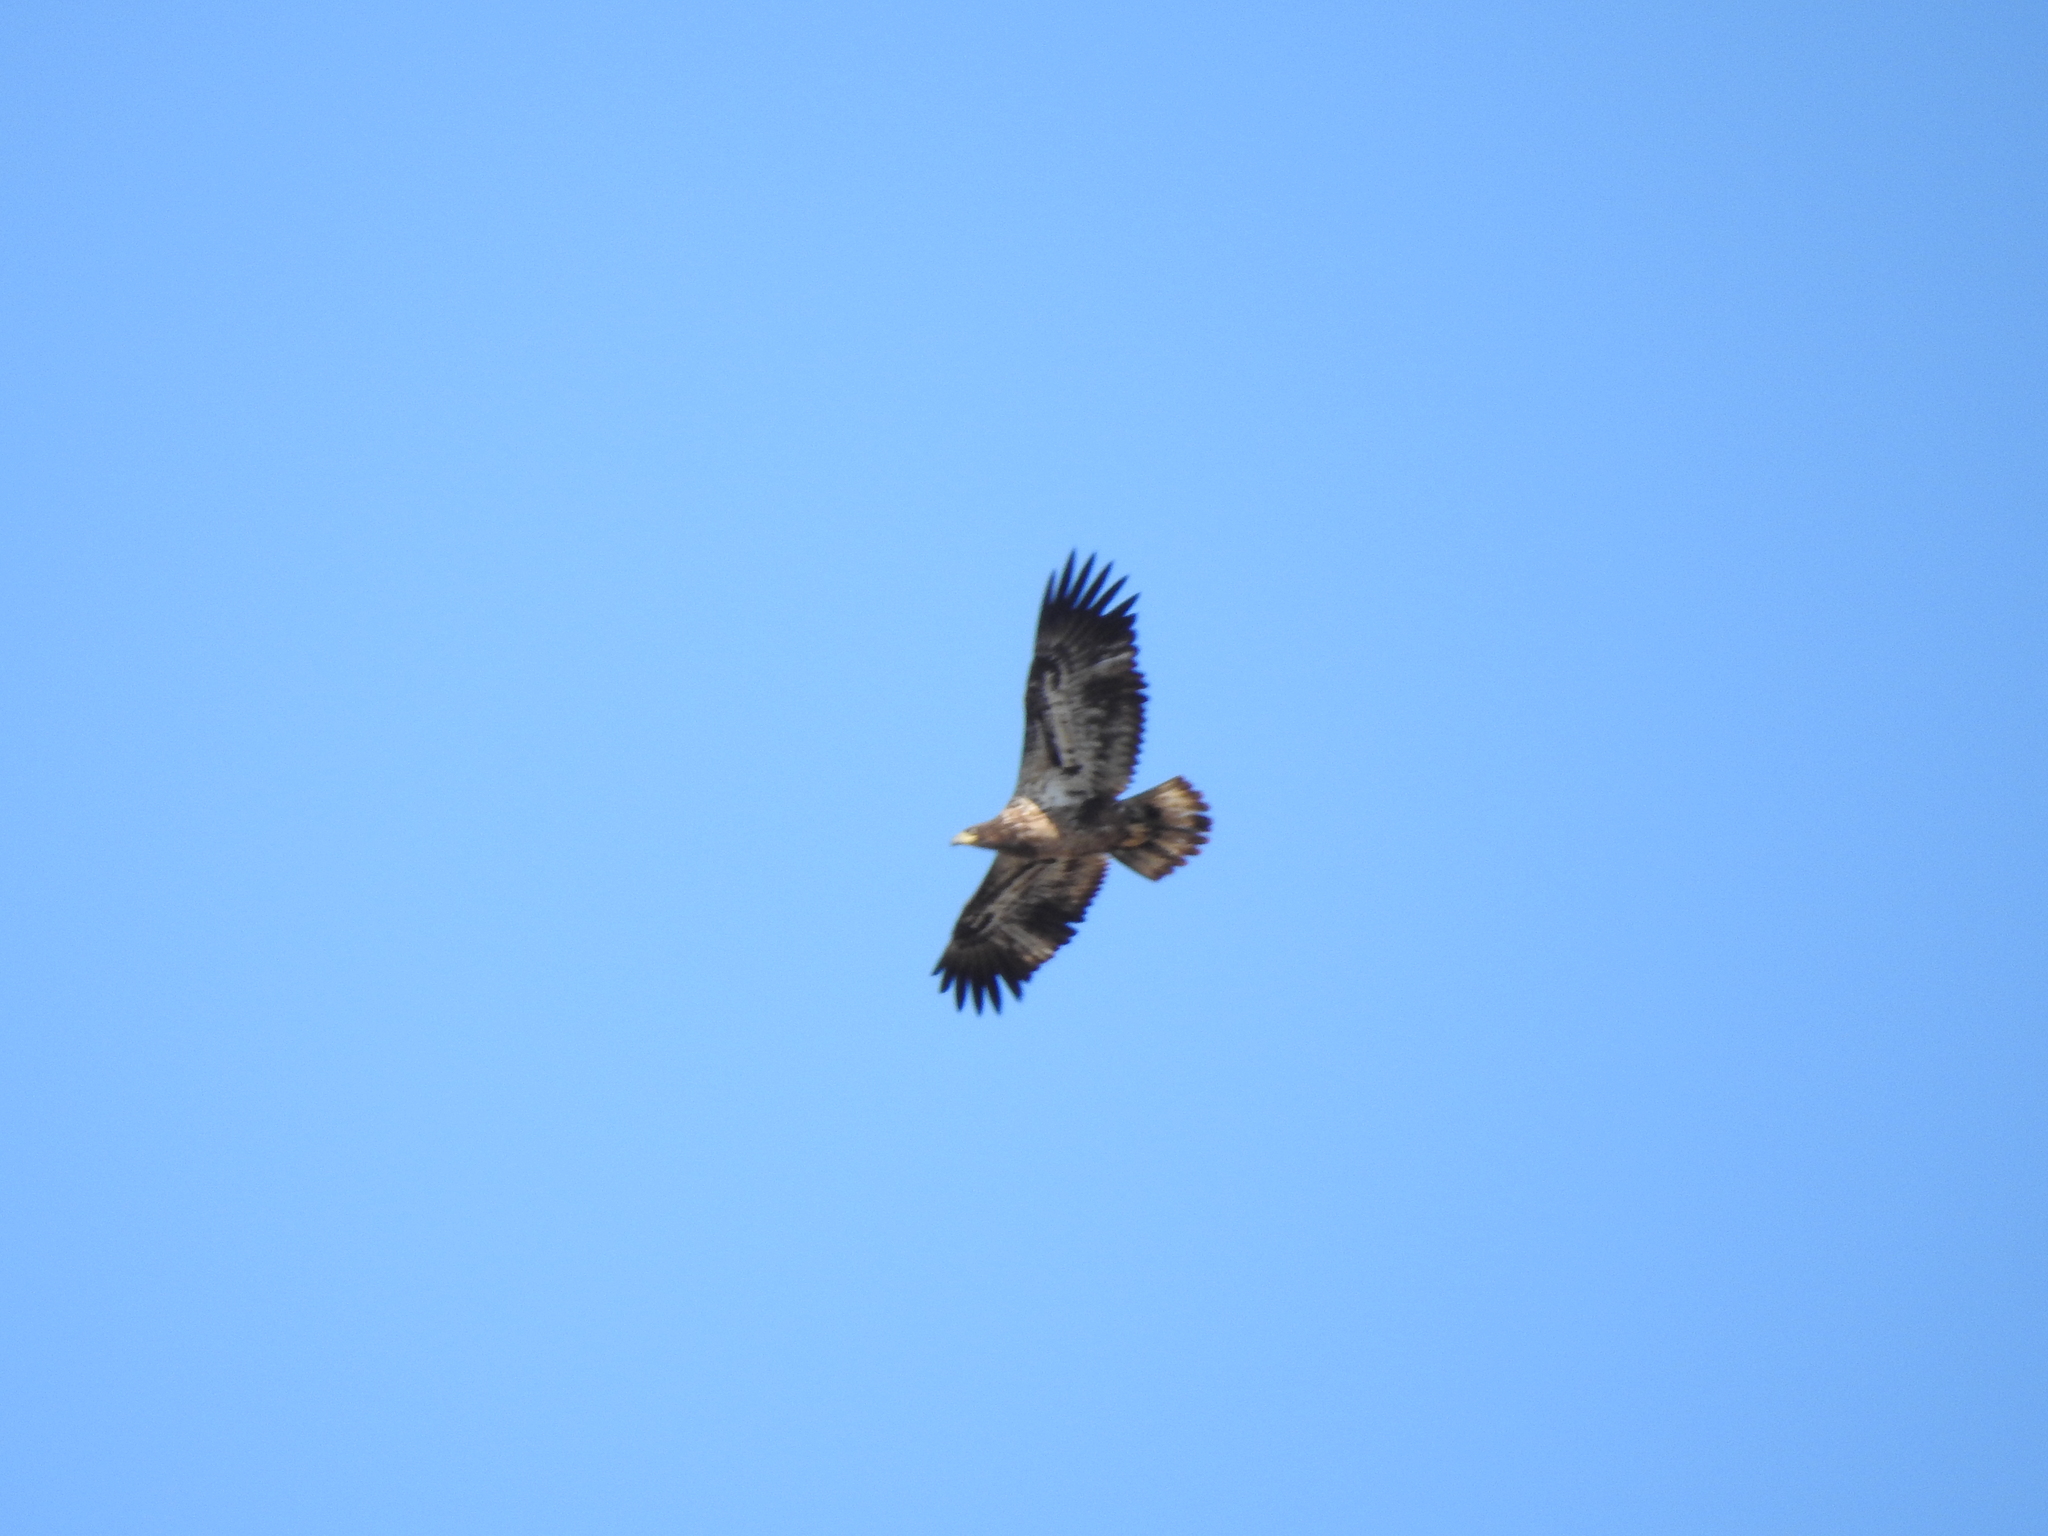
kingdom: Animalia
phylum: Chordata
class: Aves
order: Accipitriformes
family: Accipitridae
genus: Haliaeetus
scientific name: Haliaeetus leucocephalus
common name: Bald eagle
